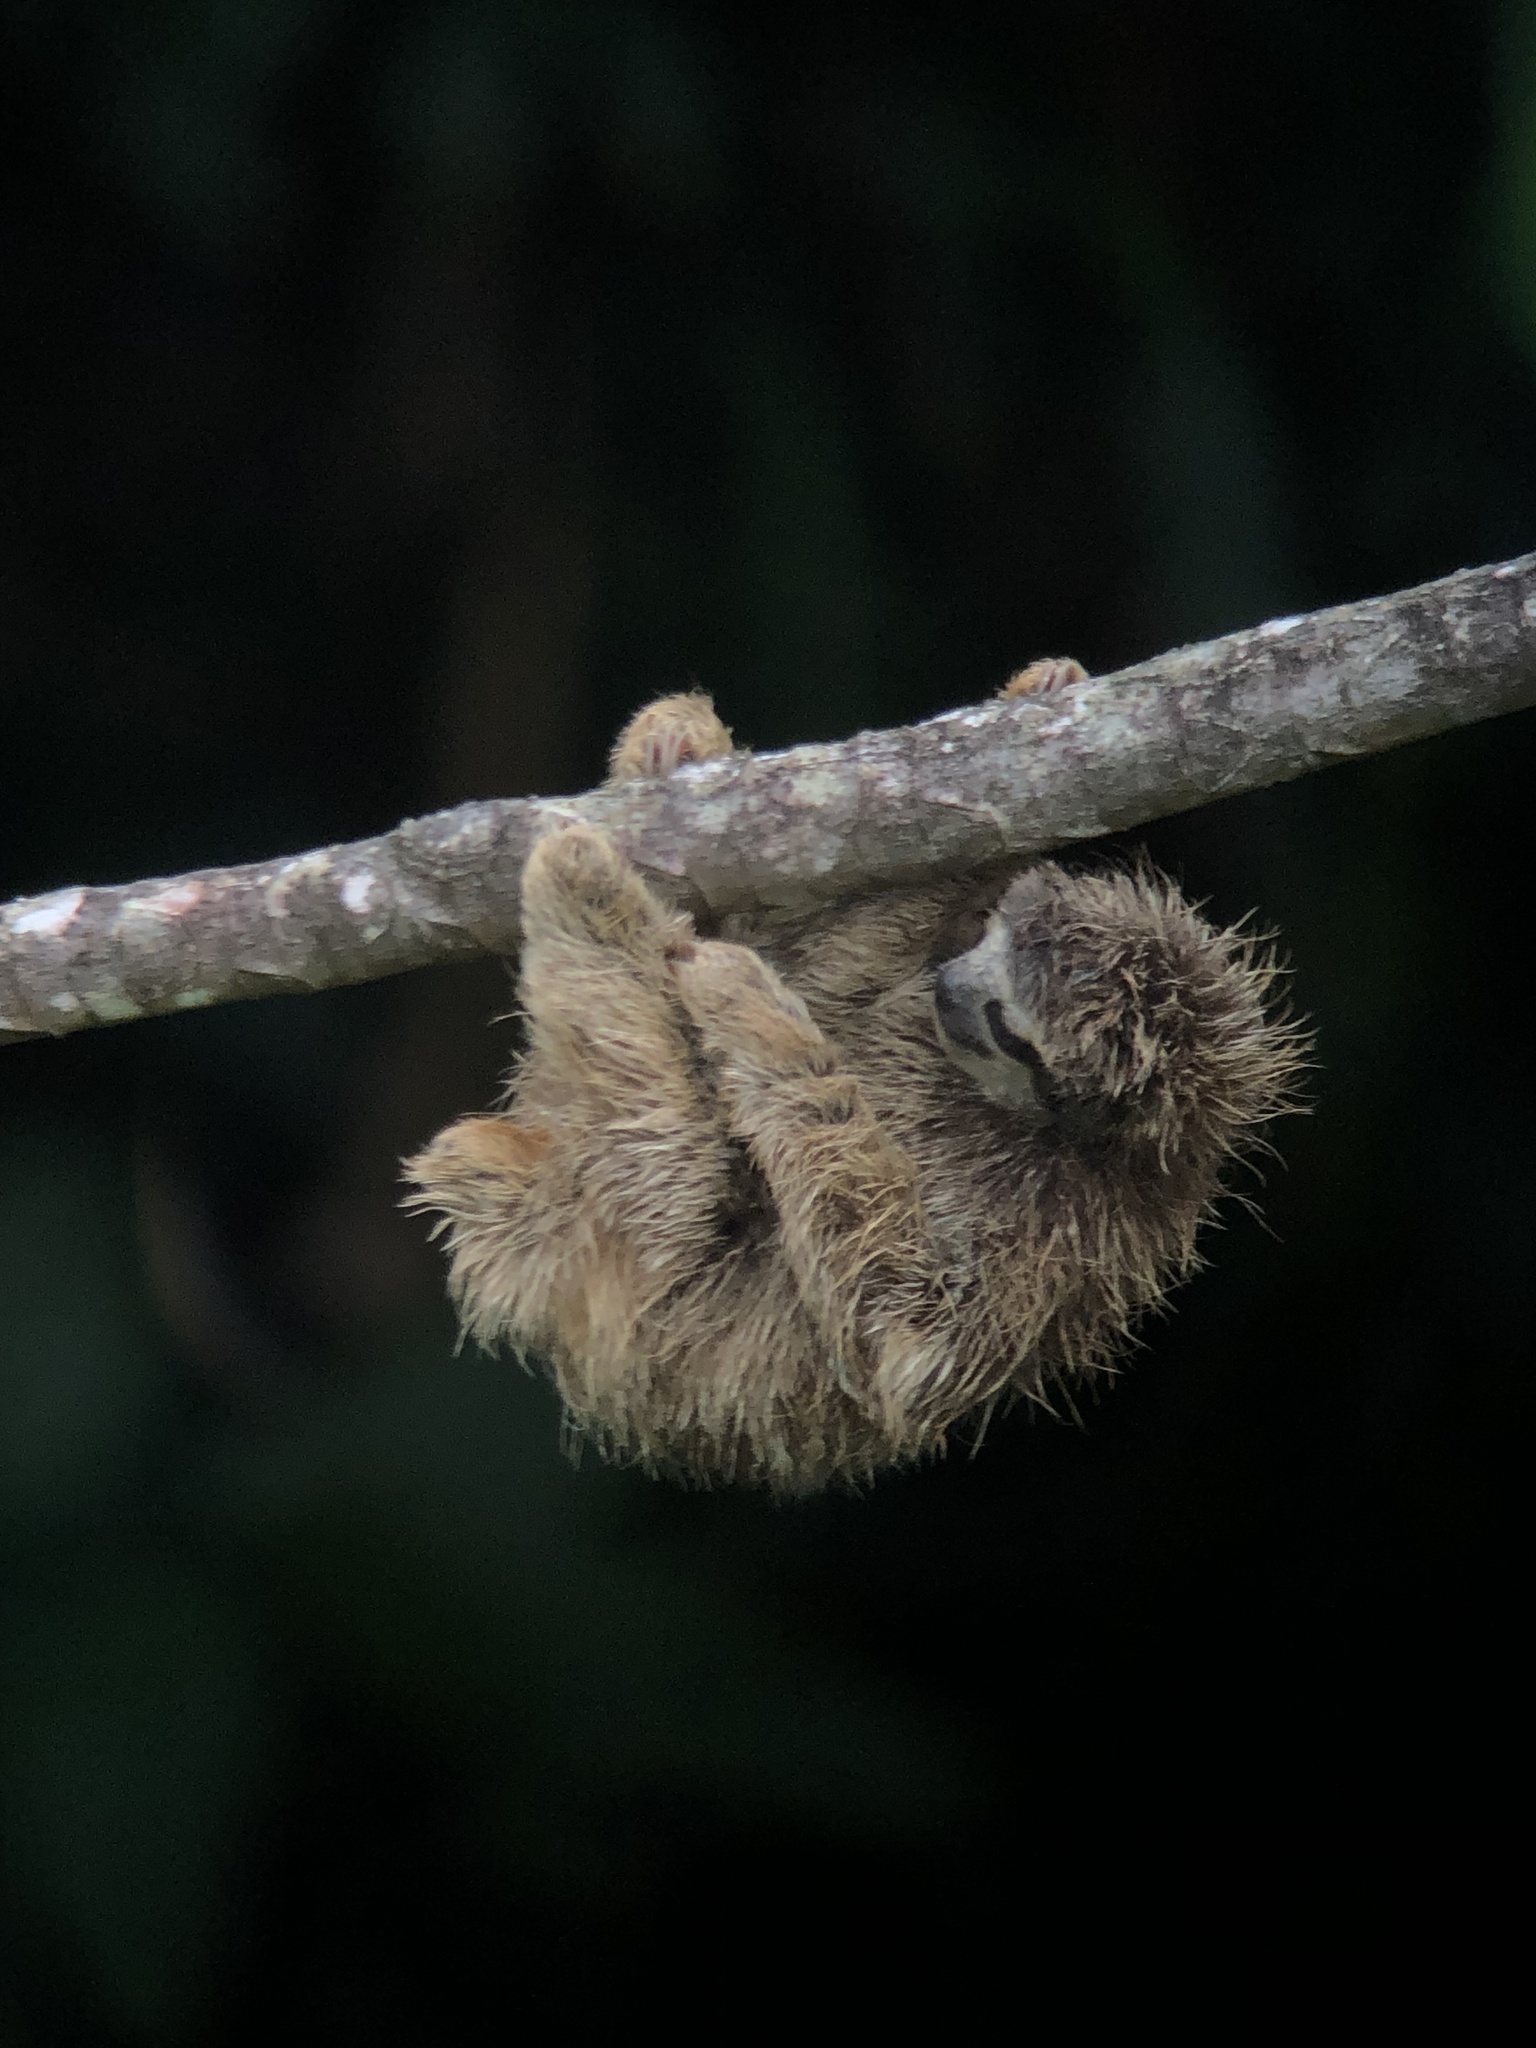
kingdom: Animalia
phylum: Chordata
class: Mammalia
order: Pilosa
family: Bradypodidae
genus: Bradypus
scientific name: Bradypus variegatus
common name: Brown-throated three-toed sloth
